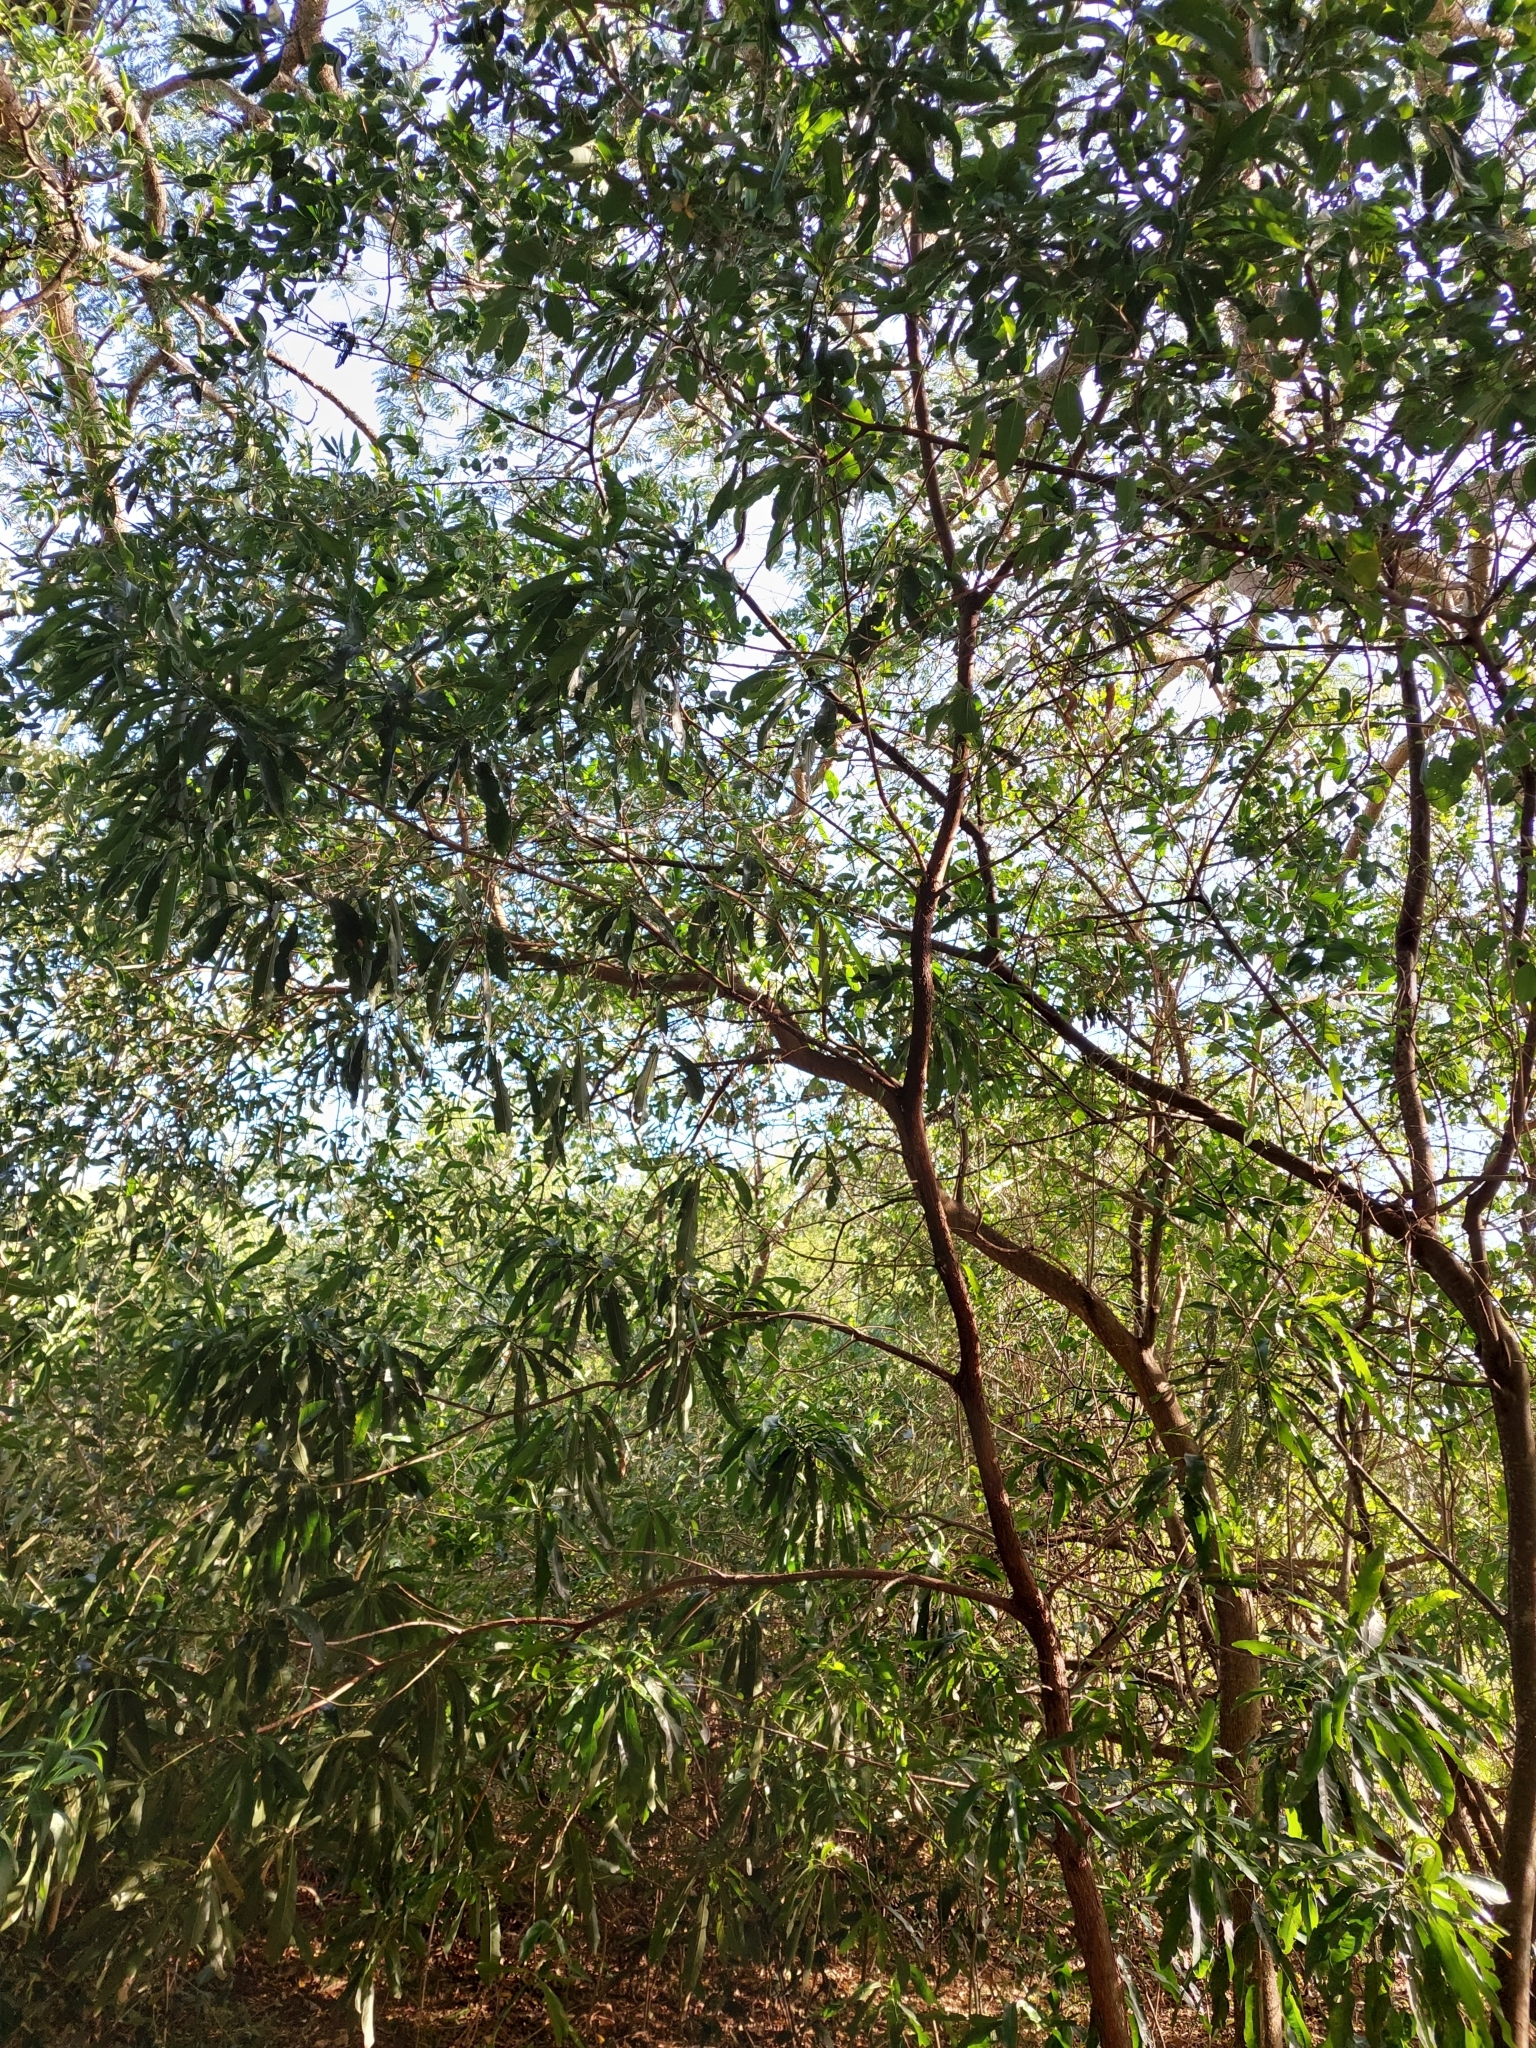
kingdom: Plantae
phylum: Tracheophyta
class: Magnoliopsida
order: Ericales
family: Sapotaceae
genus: Pouteria
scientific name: Pouteria gardneriana
